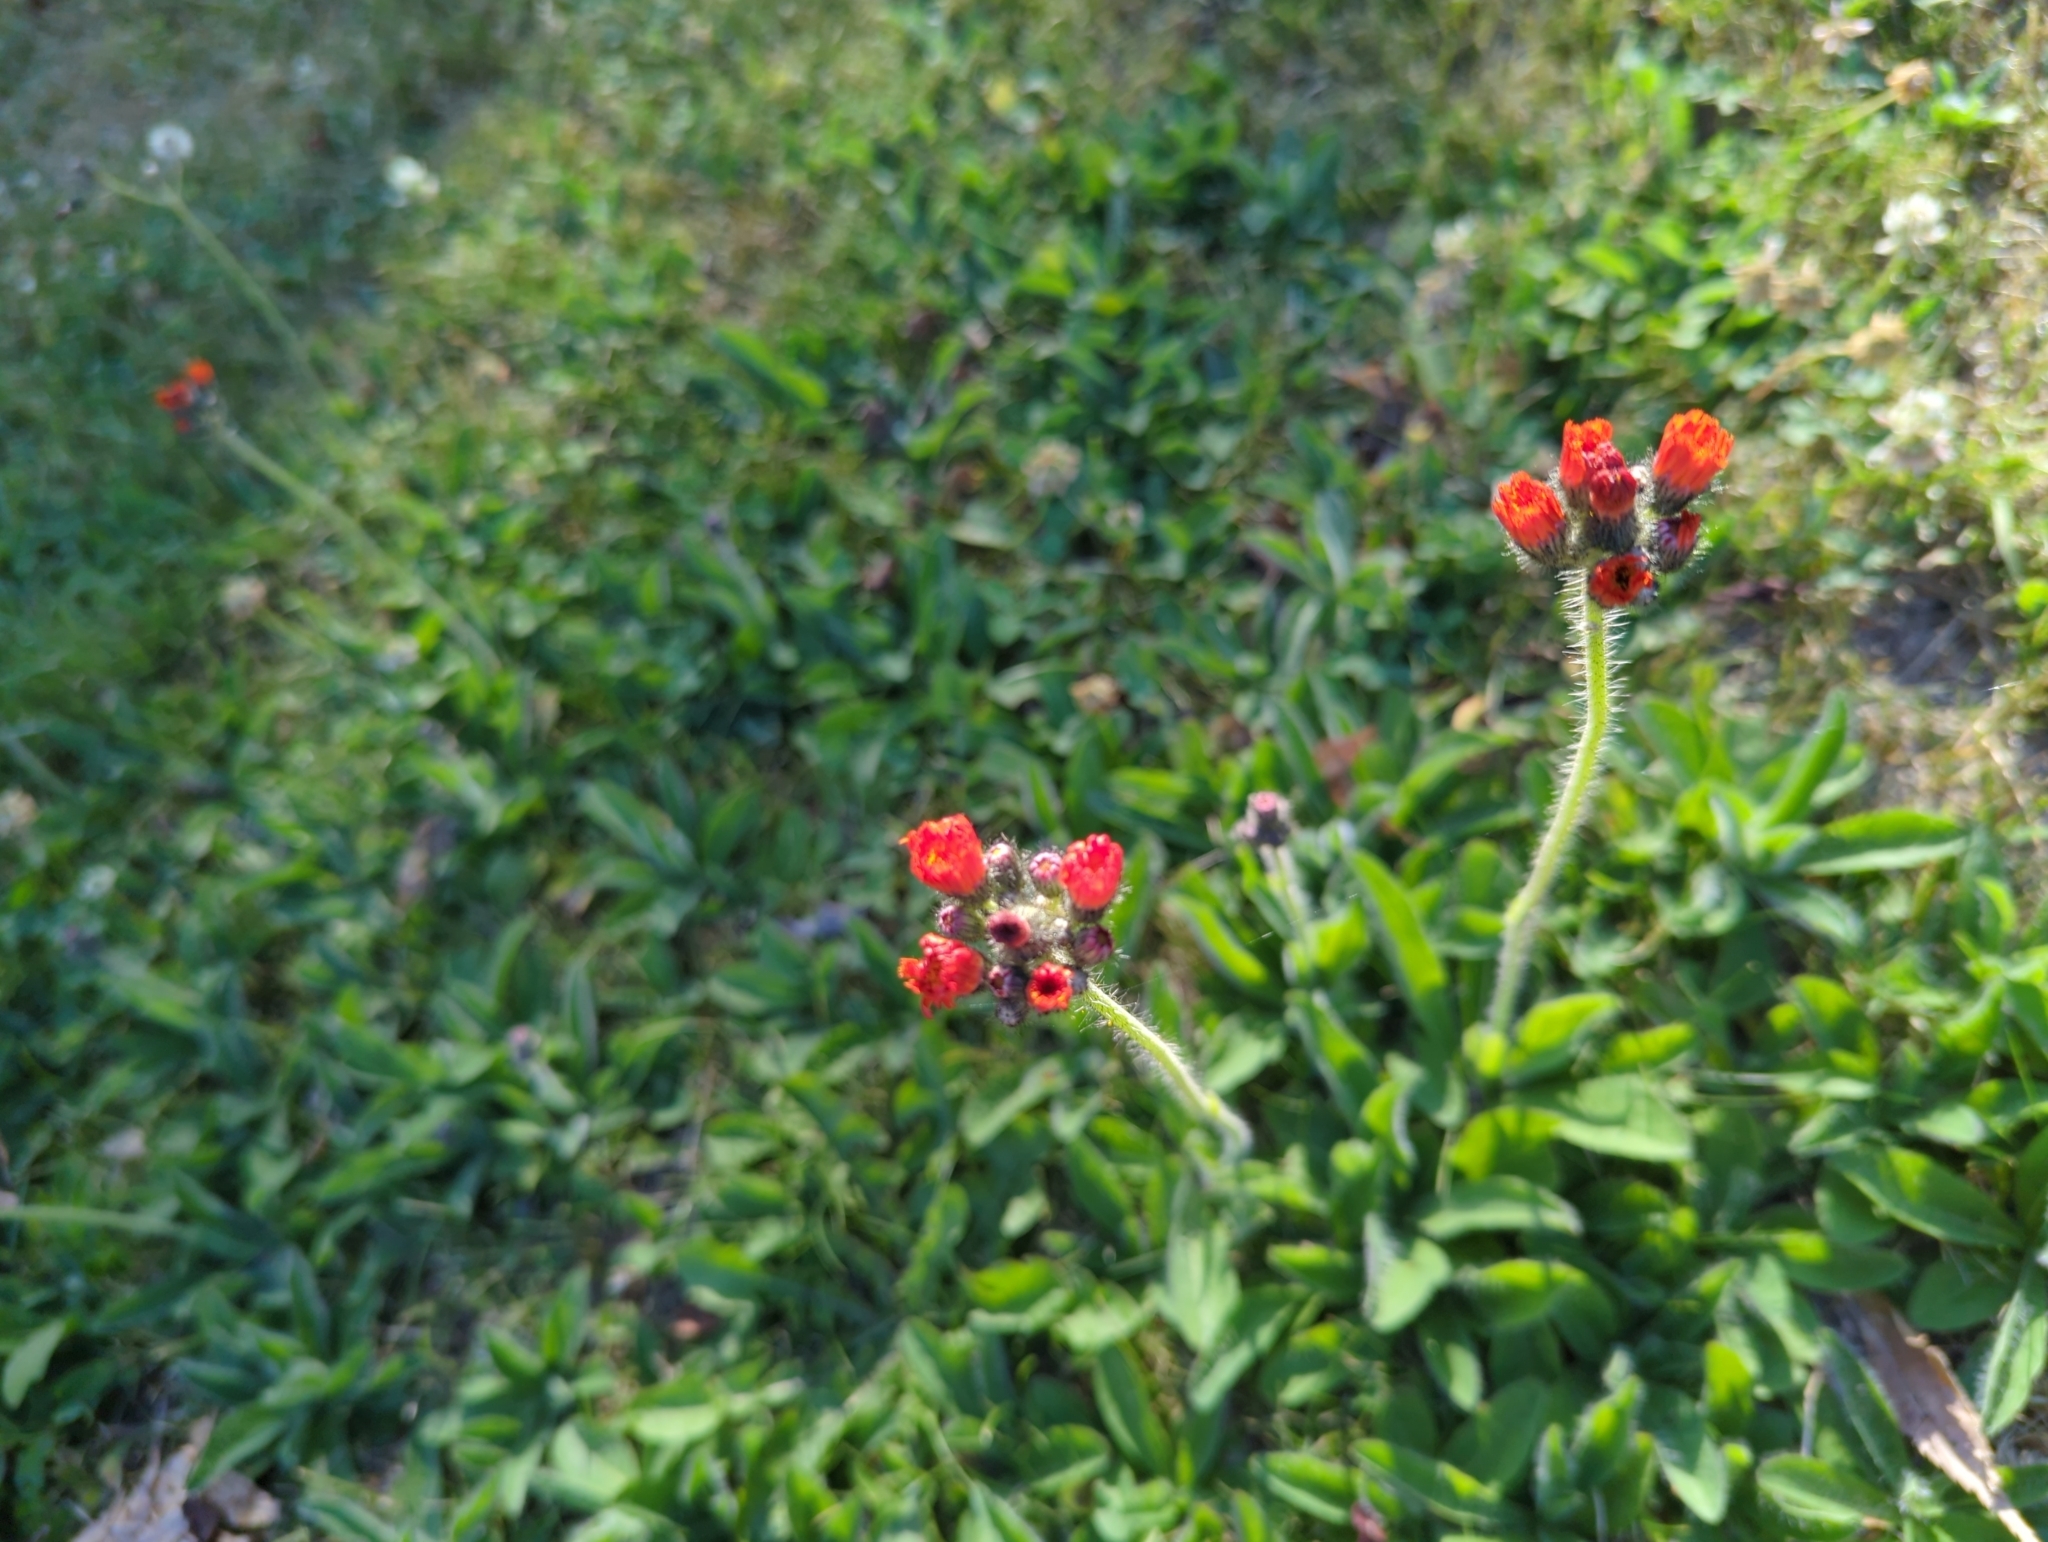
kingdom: Plantae
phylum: Tracheophyta
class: Magnoliopsida
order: Asterales
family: Asteraceae
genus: Pilosella
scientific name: Pilosella aurantiaca
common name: Fox-and-cubs
